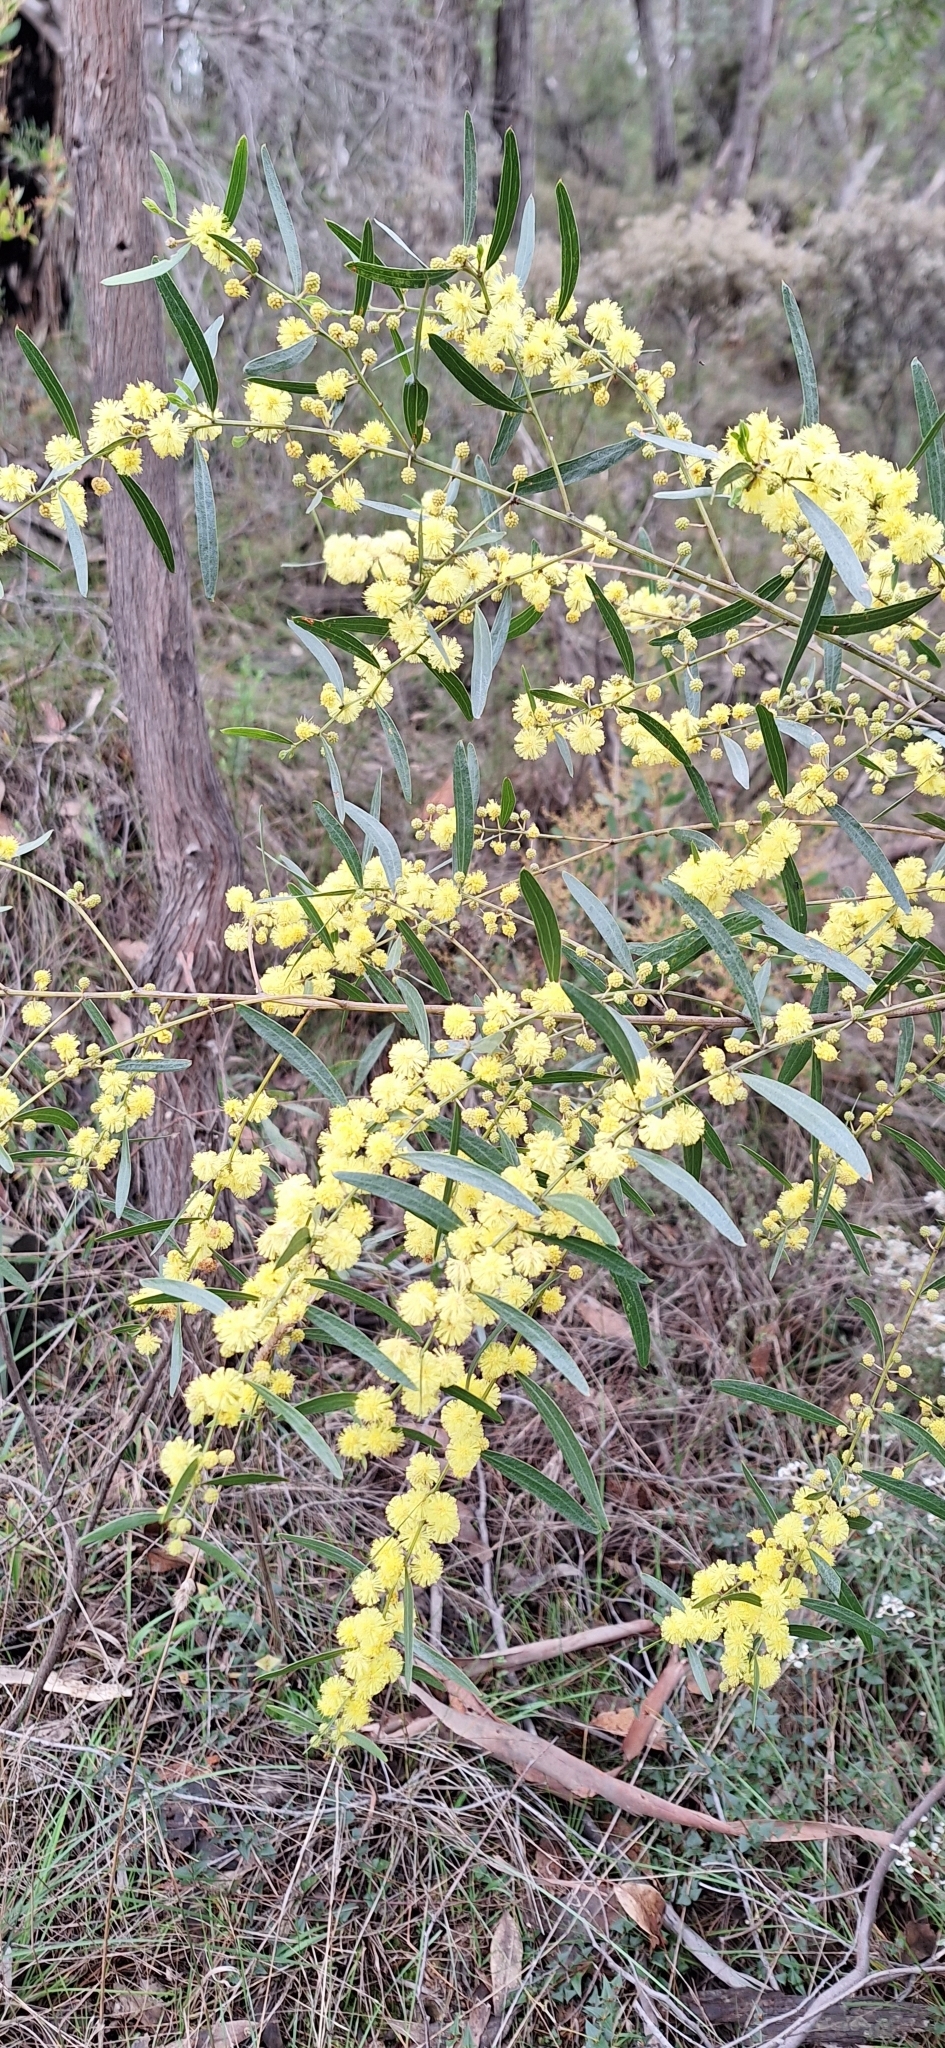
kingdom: Plantae
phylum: Tracheophyta
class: Magnoliopsida
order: Fabales
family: Fabaceae
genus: Acacia
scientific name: Acacia verniciflua
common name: Varnish wattle
